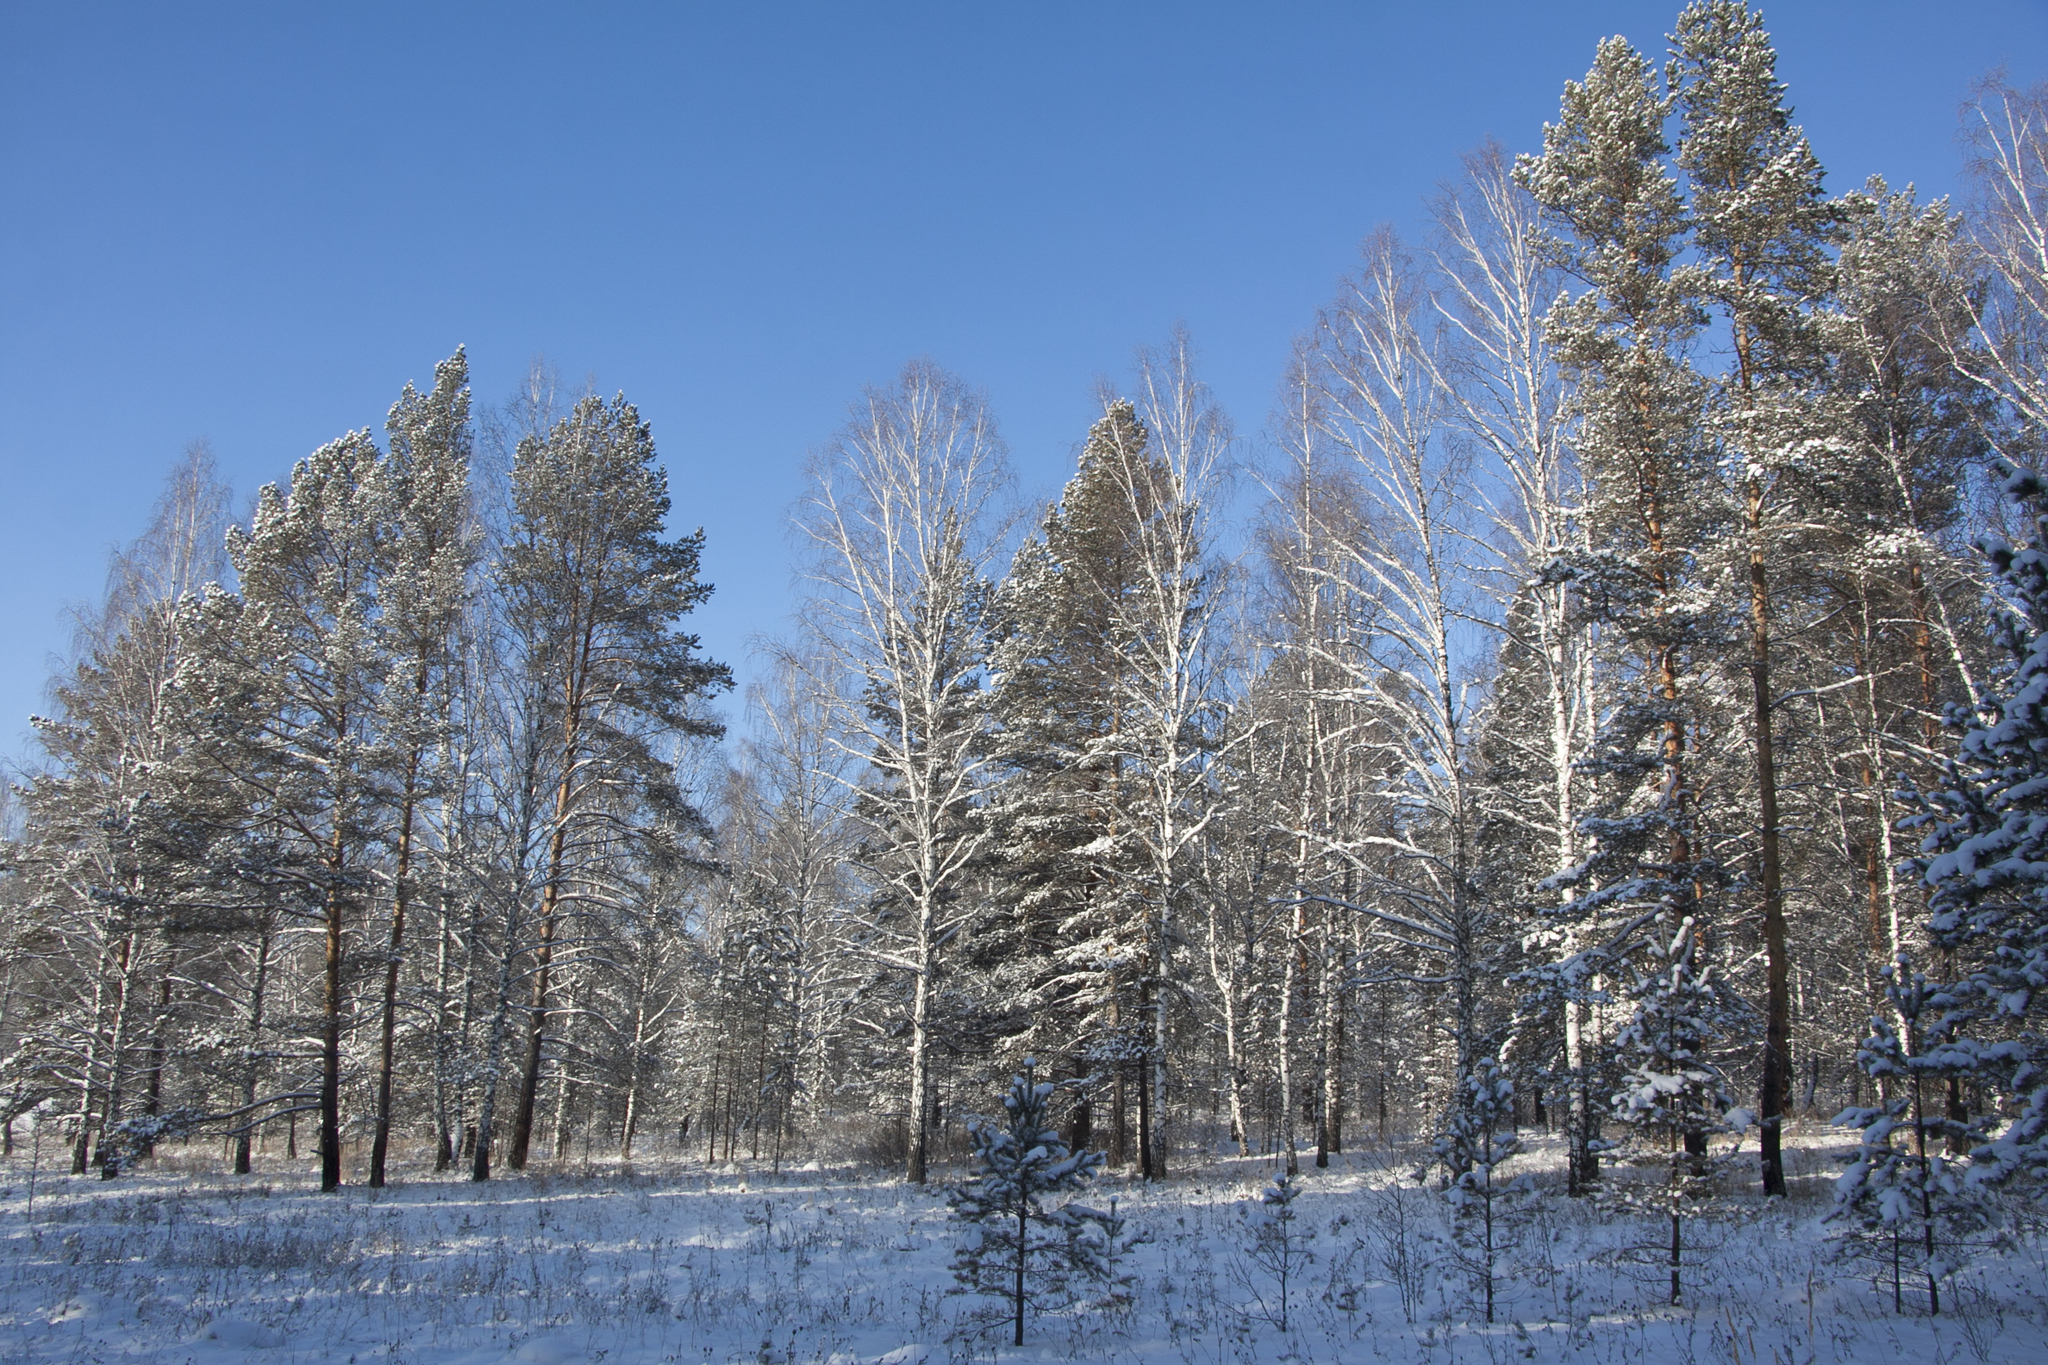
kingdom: Plantae
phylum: Tracheophyta
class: Pinopsida
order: Pinales
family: Pinaceae
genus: Pinus
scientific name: Pinus sylvestris
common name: Scots pine
